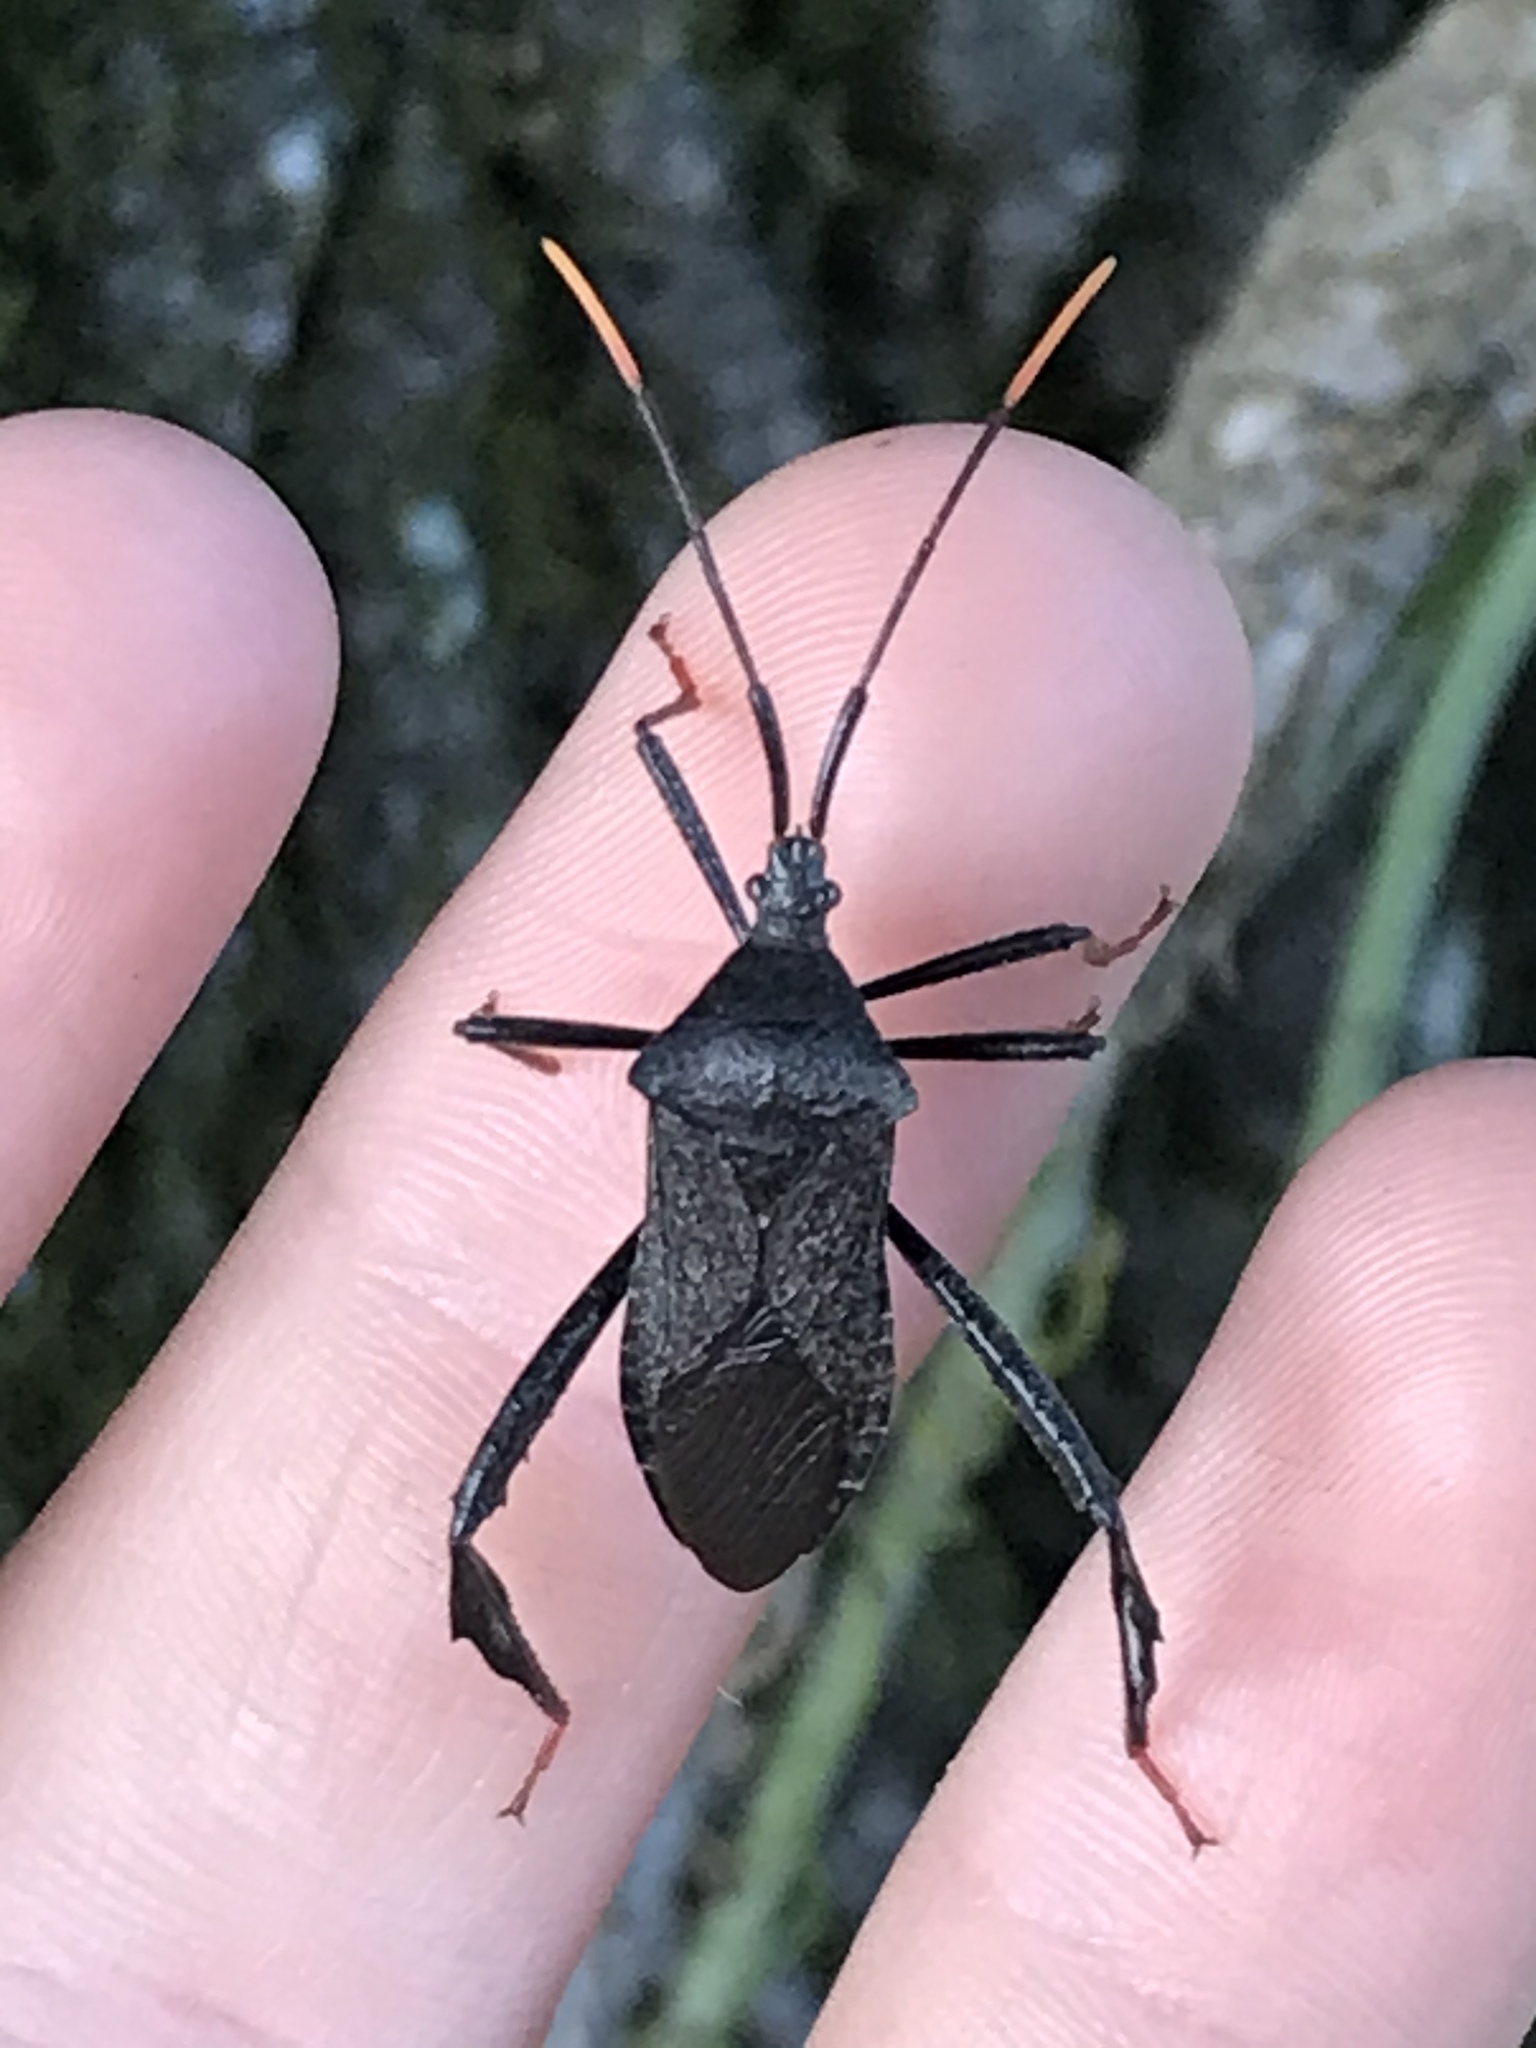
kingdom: Animalia
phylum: Arthropoda
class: Insecta
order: Hemiptera
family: Coreidae
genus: Acanthocephala
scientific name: Acanthocephala terminalis
